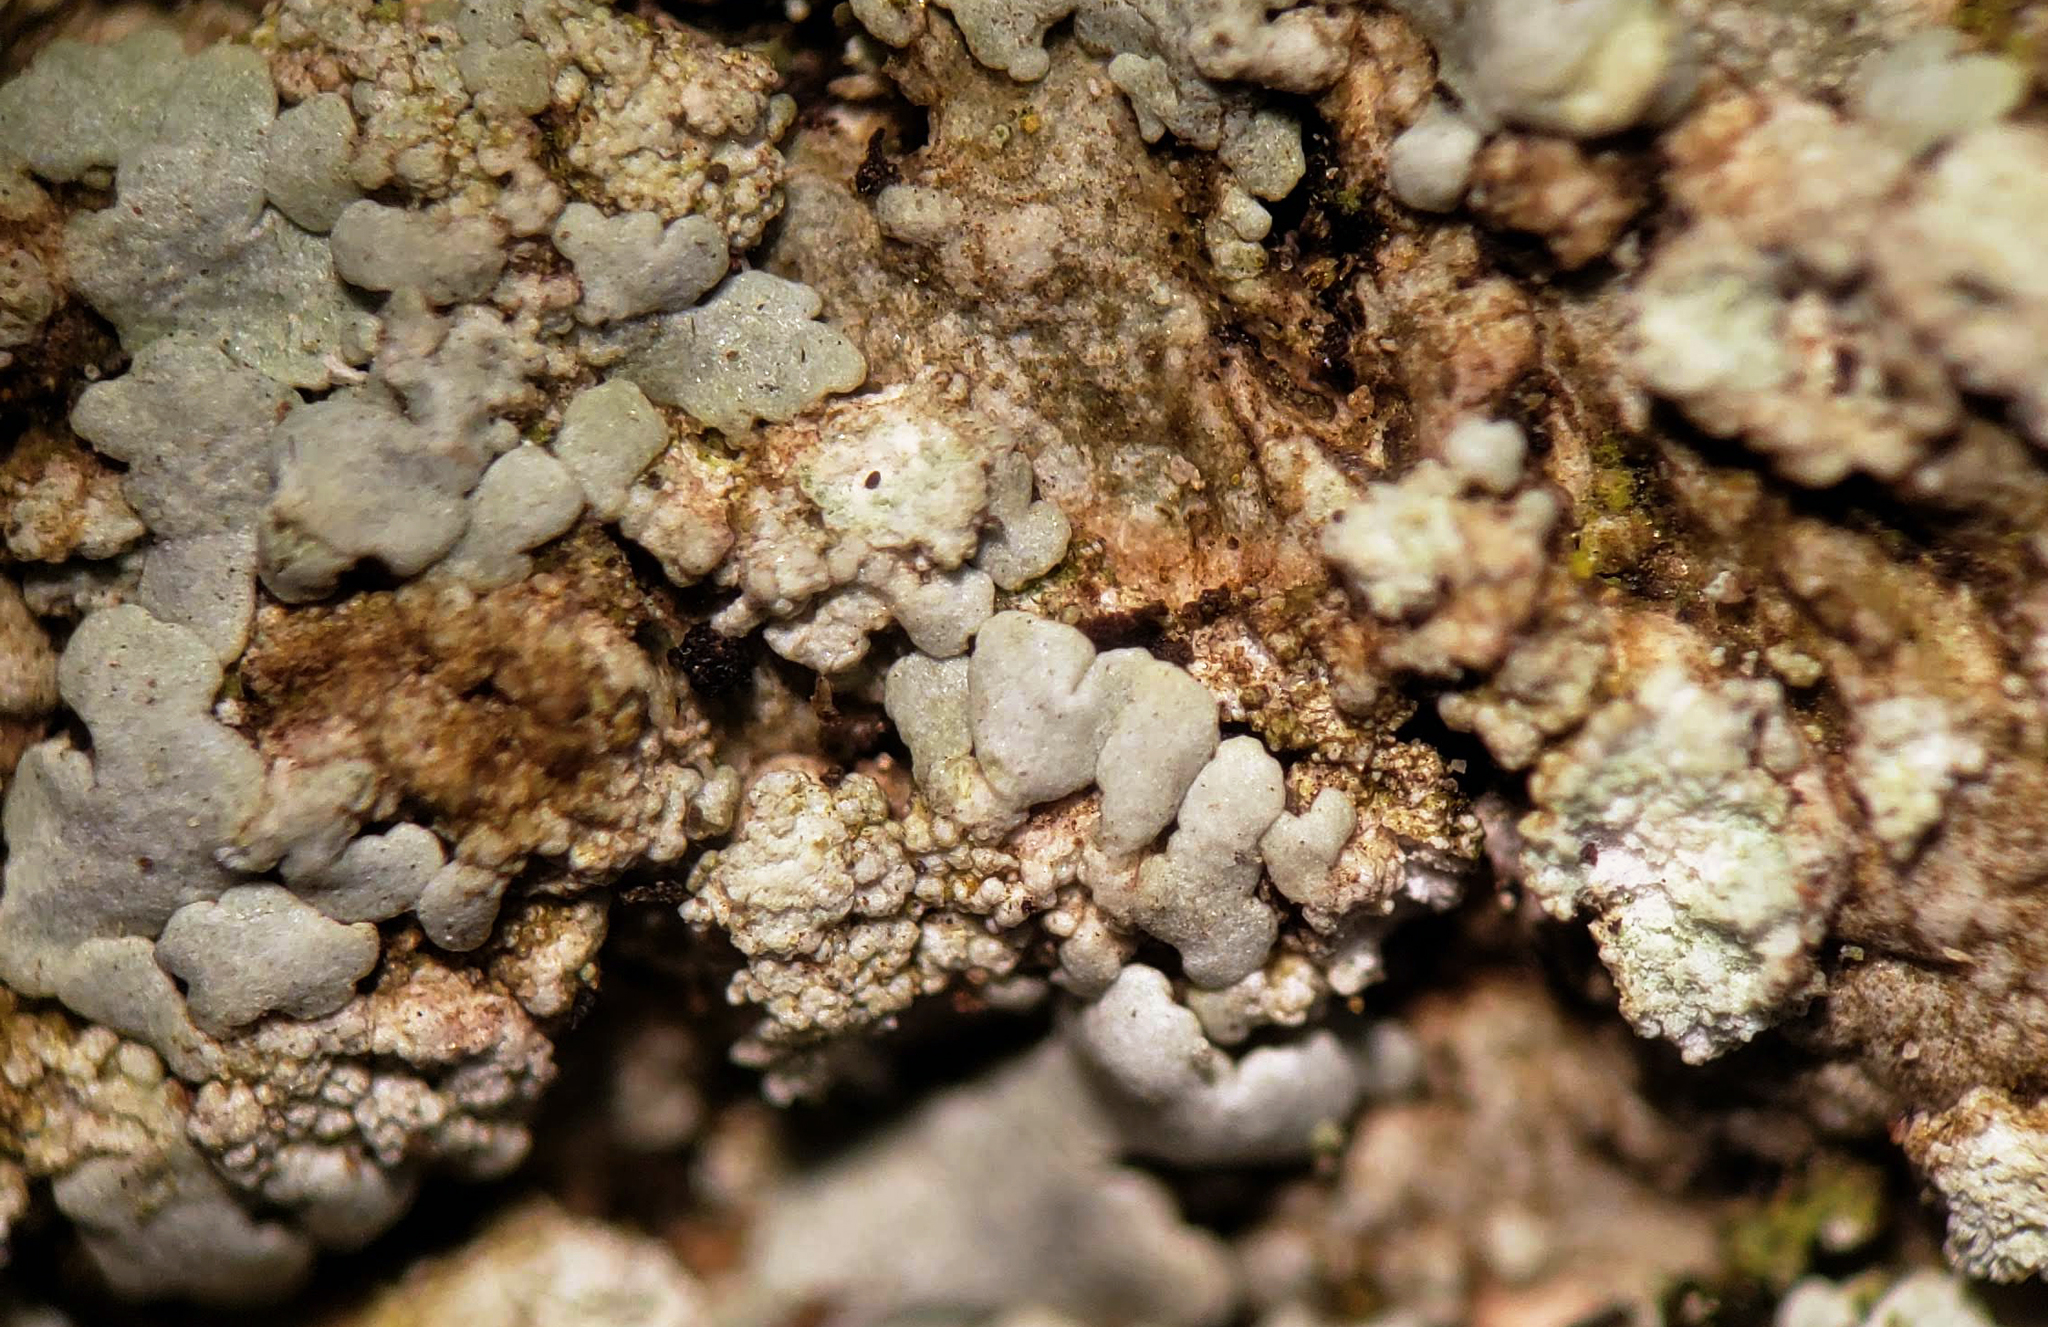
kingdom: Fungi
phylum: Ascomycota
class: Lecanoromycetes
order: Caliciales
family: Physciaceae
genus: Physcia
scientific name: Physcia americana
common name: American rosette lichen
